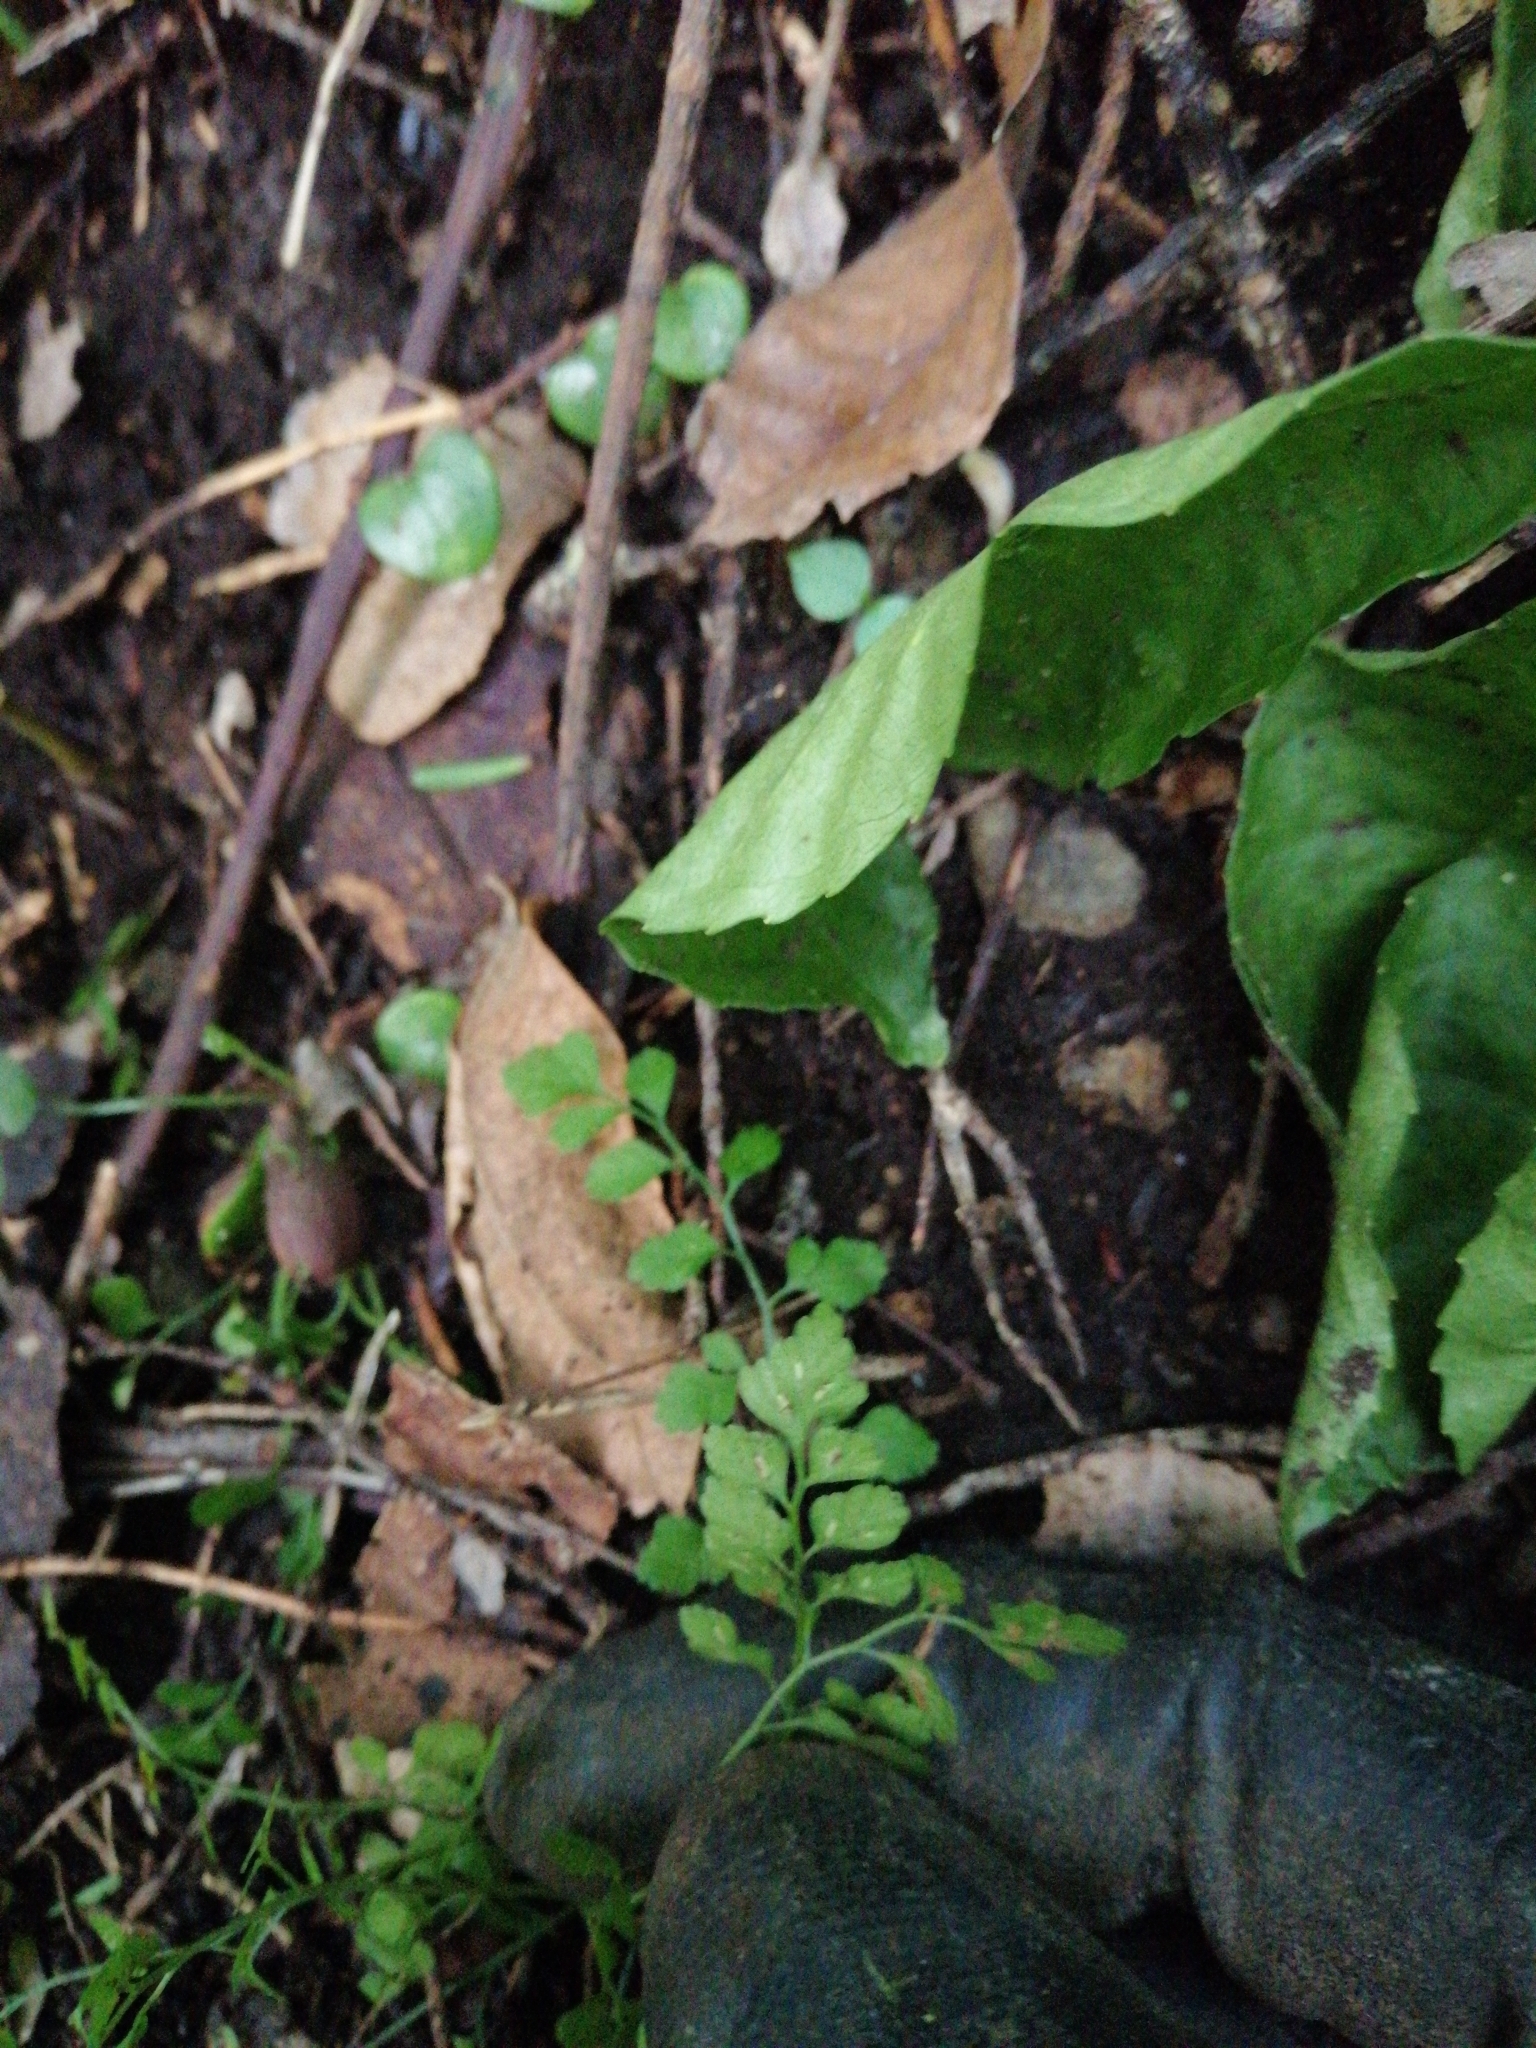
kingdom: Plantae
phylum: Tracheophyta
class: Polypodiopsida
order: Polypodiales
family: Aspleniaceae
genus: Asplenium
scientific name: Asplenium hookerianum
